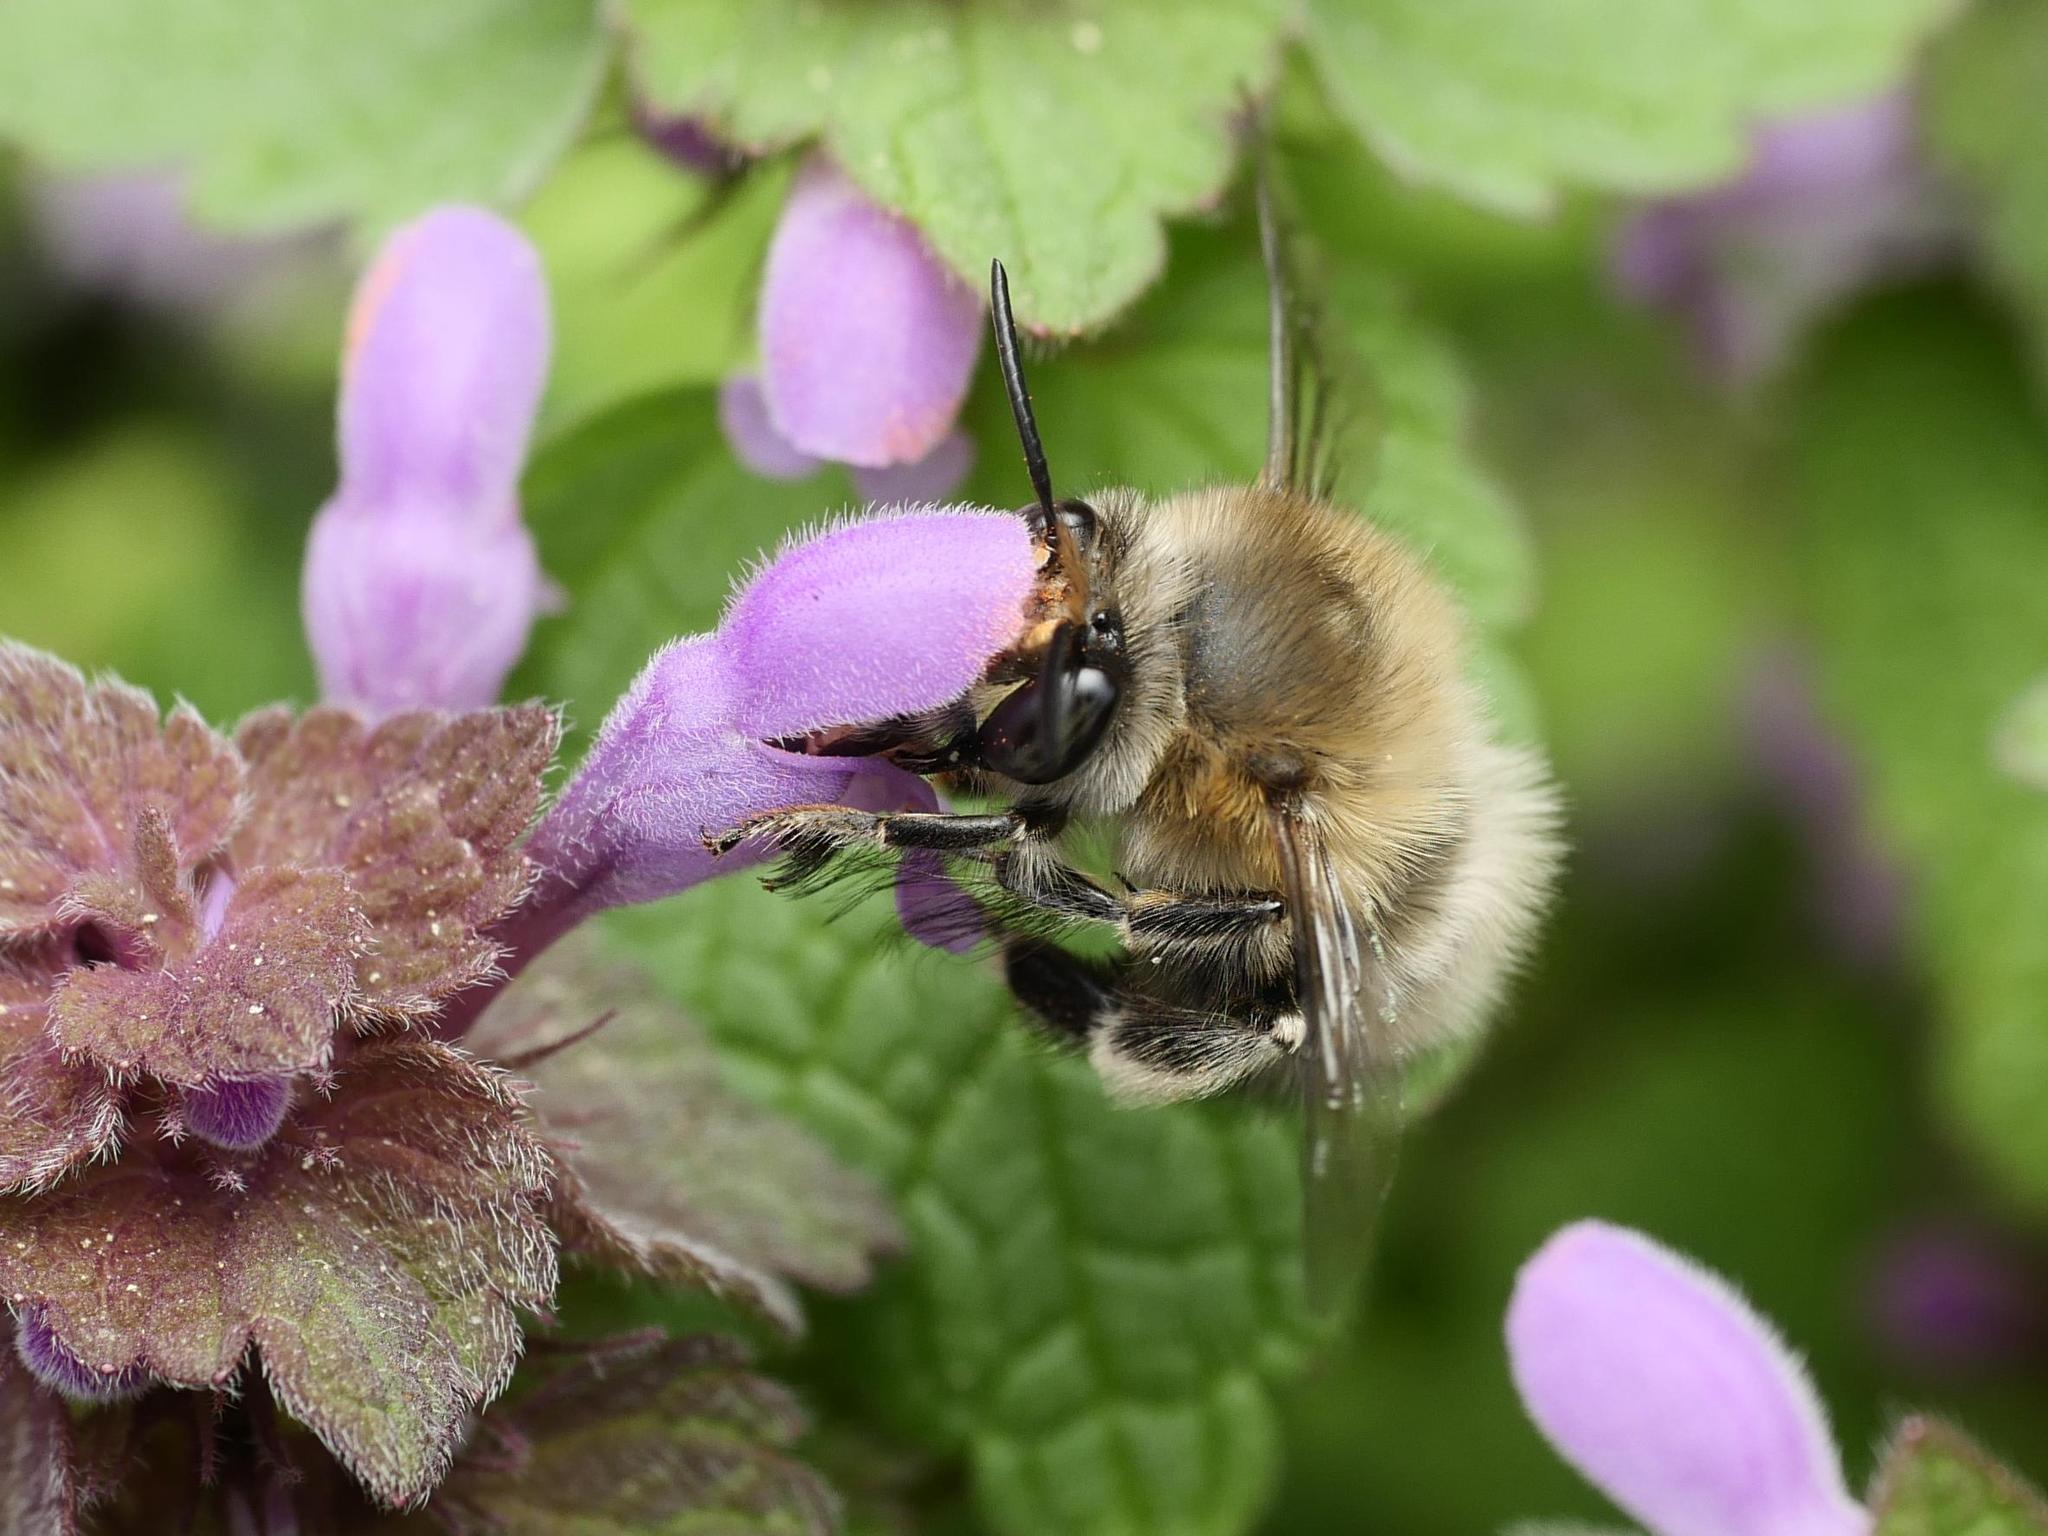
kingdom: Animalia
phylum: Arthropoda
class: Insecta
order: Hymenoptera
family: Apidae
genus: Anthophora
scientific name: Anthophora plumipes
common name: Hairy-footed flower bee
